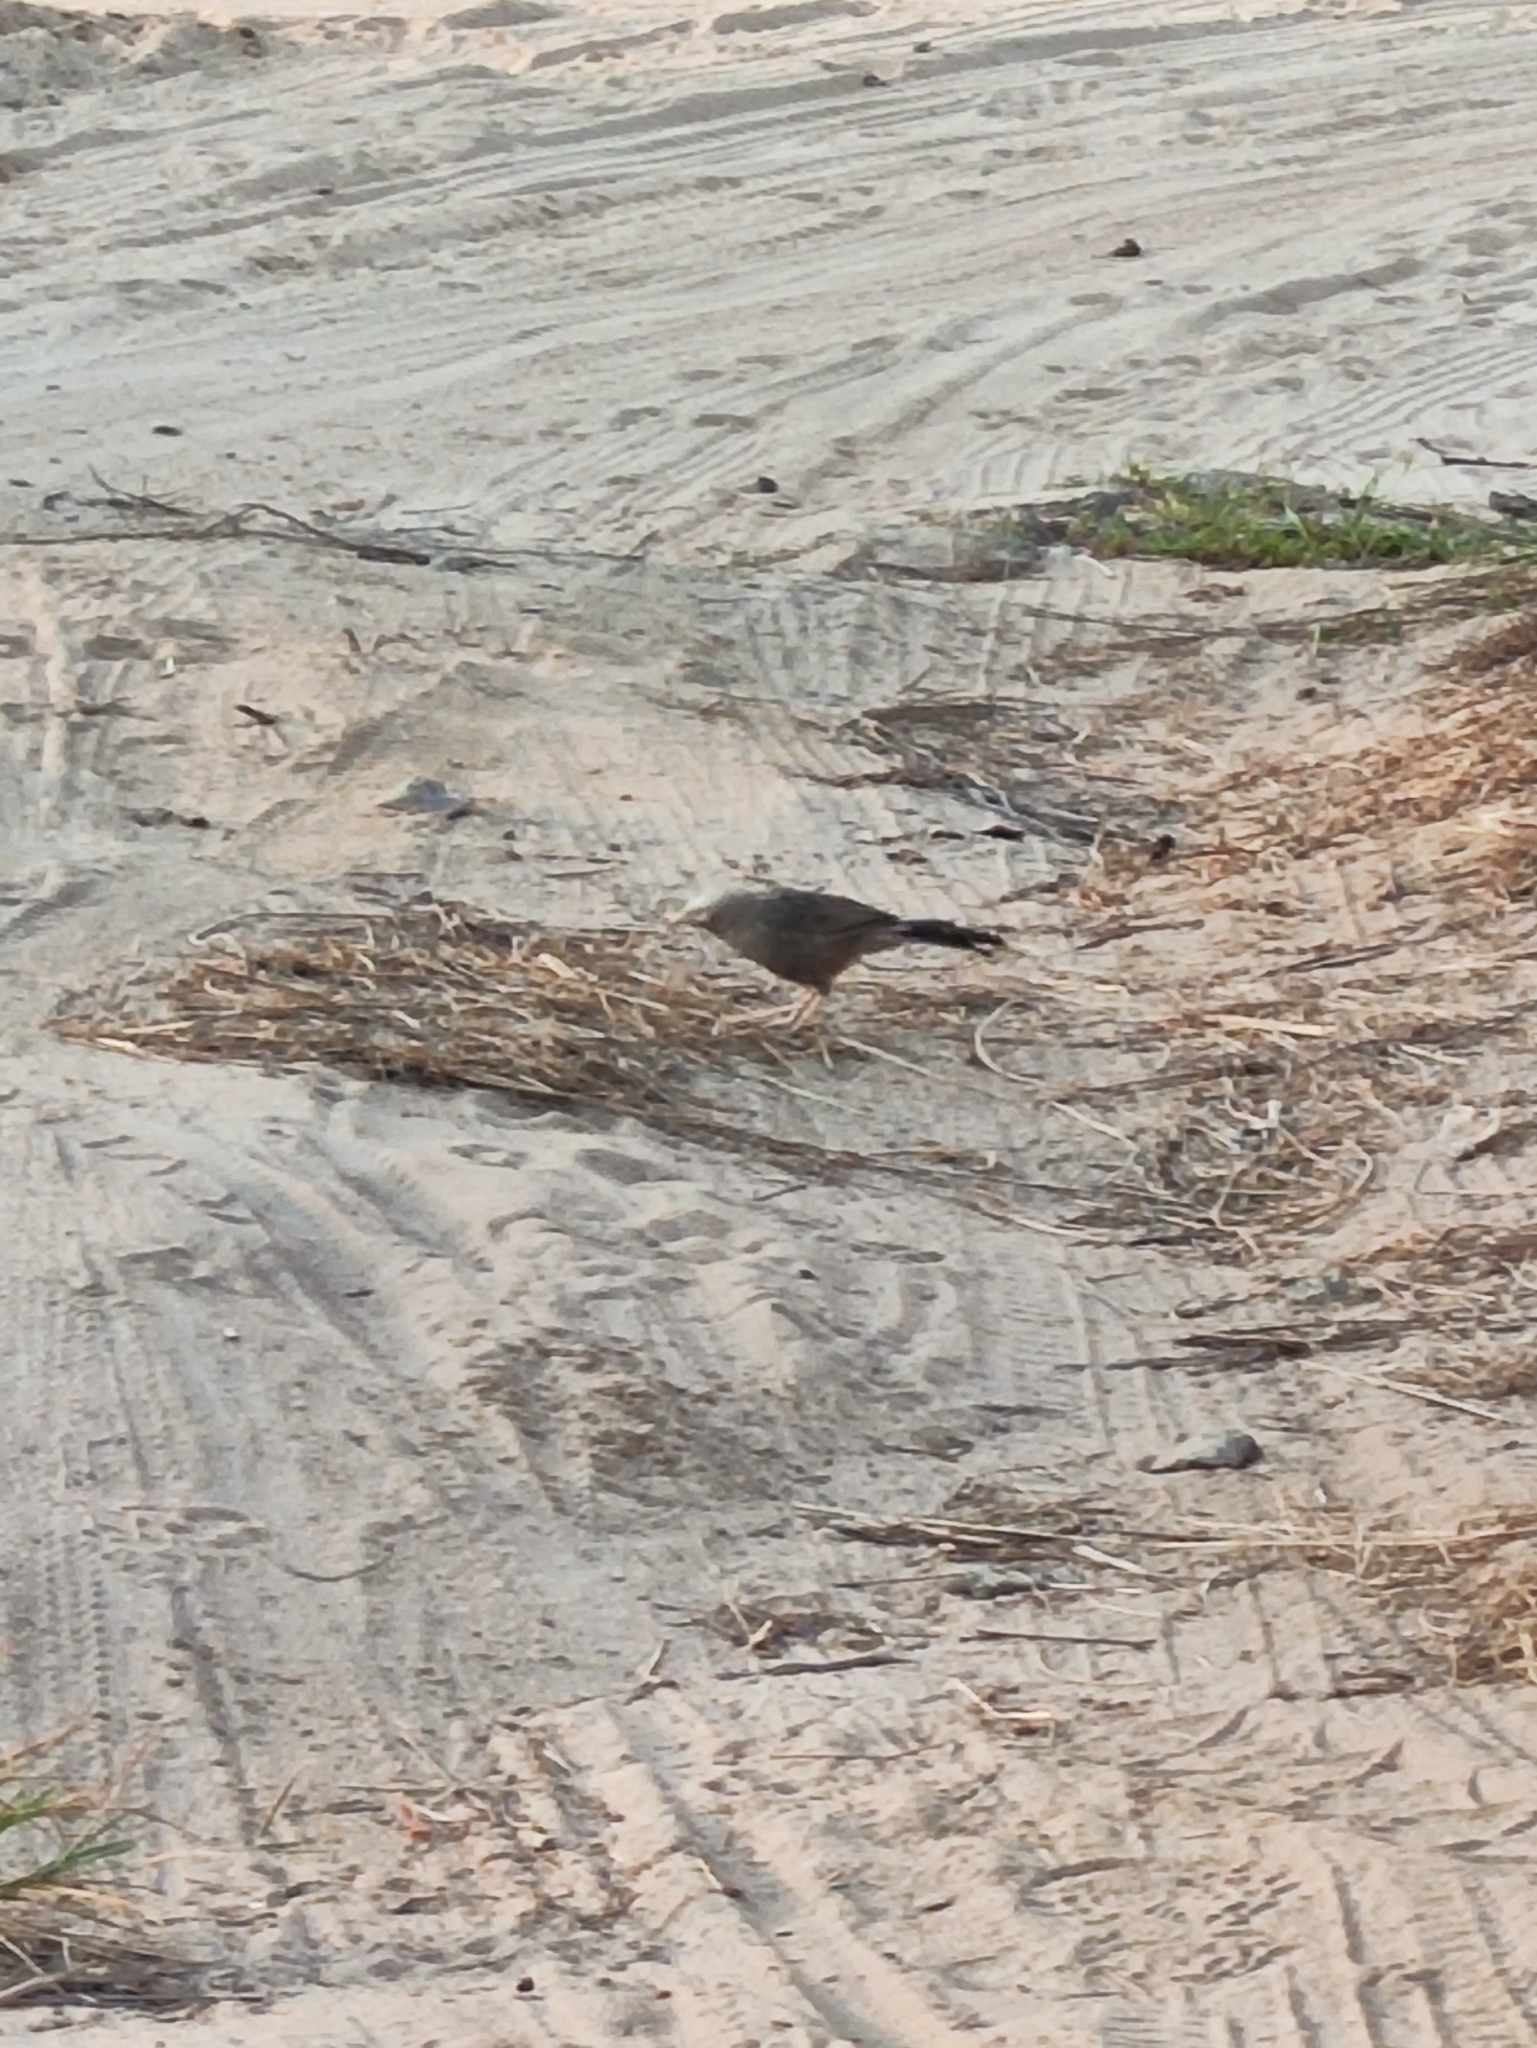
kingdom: Animalia
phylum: Chordata
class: Aves
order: Passeriformes
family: Leiothrichidae
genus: Turdoides
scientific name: Turdoides affinis
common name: Yellow-billed babbler
